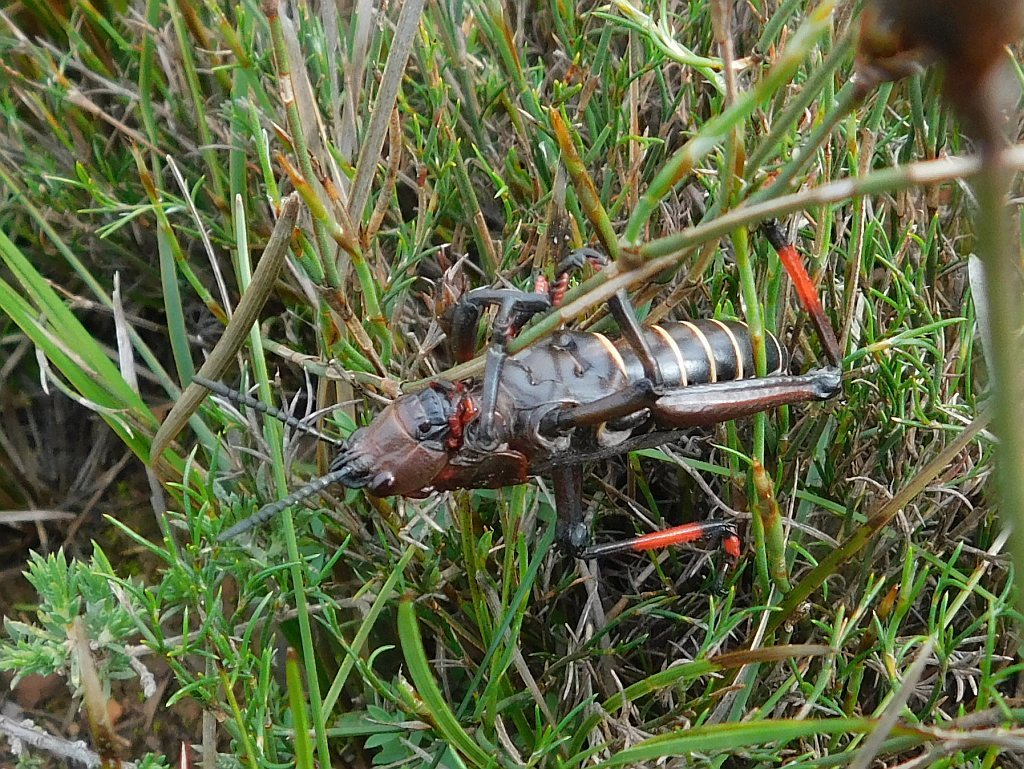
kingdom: Animalia
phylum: Arthropoda
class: Insecta
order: Orthoptera
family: Pyrgomorphidae
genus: Dictyophorus
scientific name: Dictyophorus spumans
